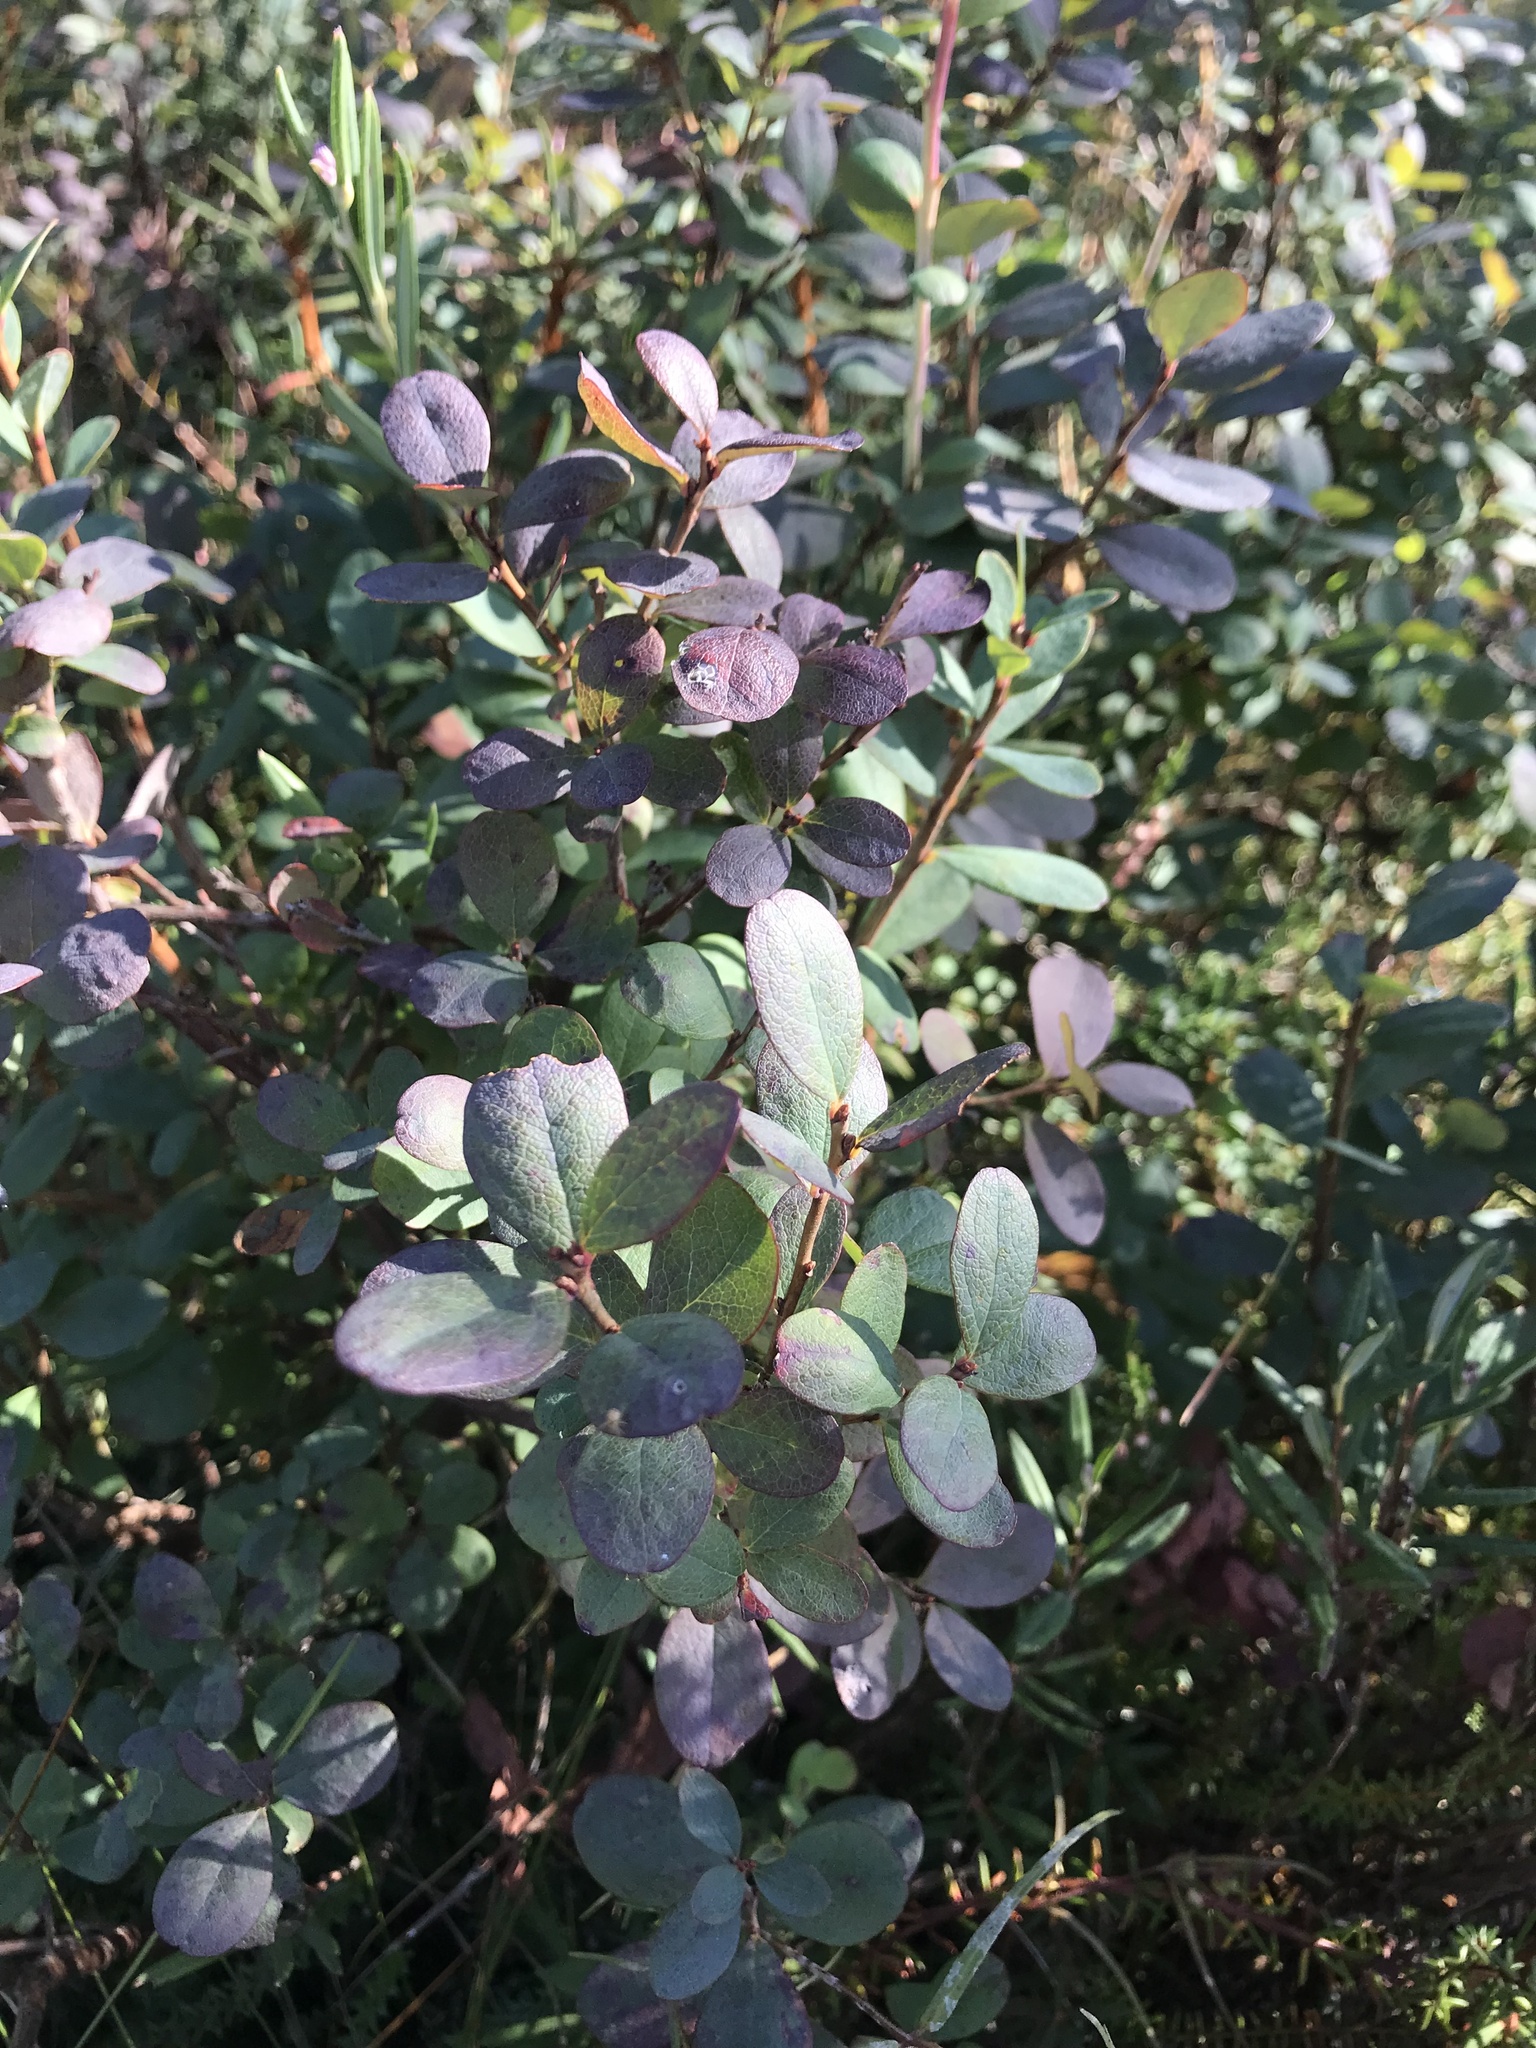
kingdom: Plantae
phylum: Tracheophyta
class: Magnoliopsida
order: Ericales
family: Ericaceae
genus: Vaccinium
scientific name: Vaccinium uliginosum
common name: Bog bilberry
